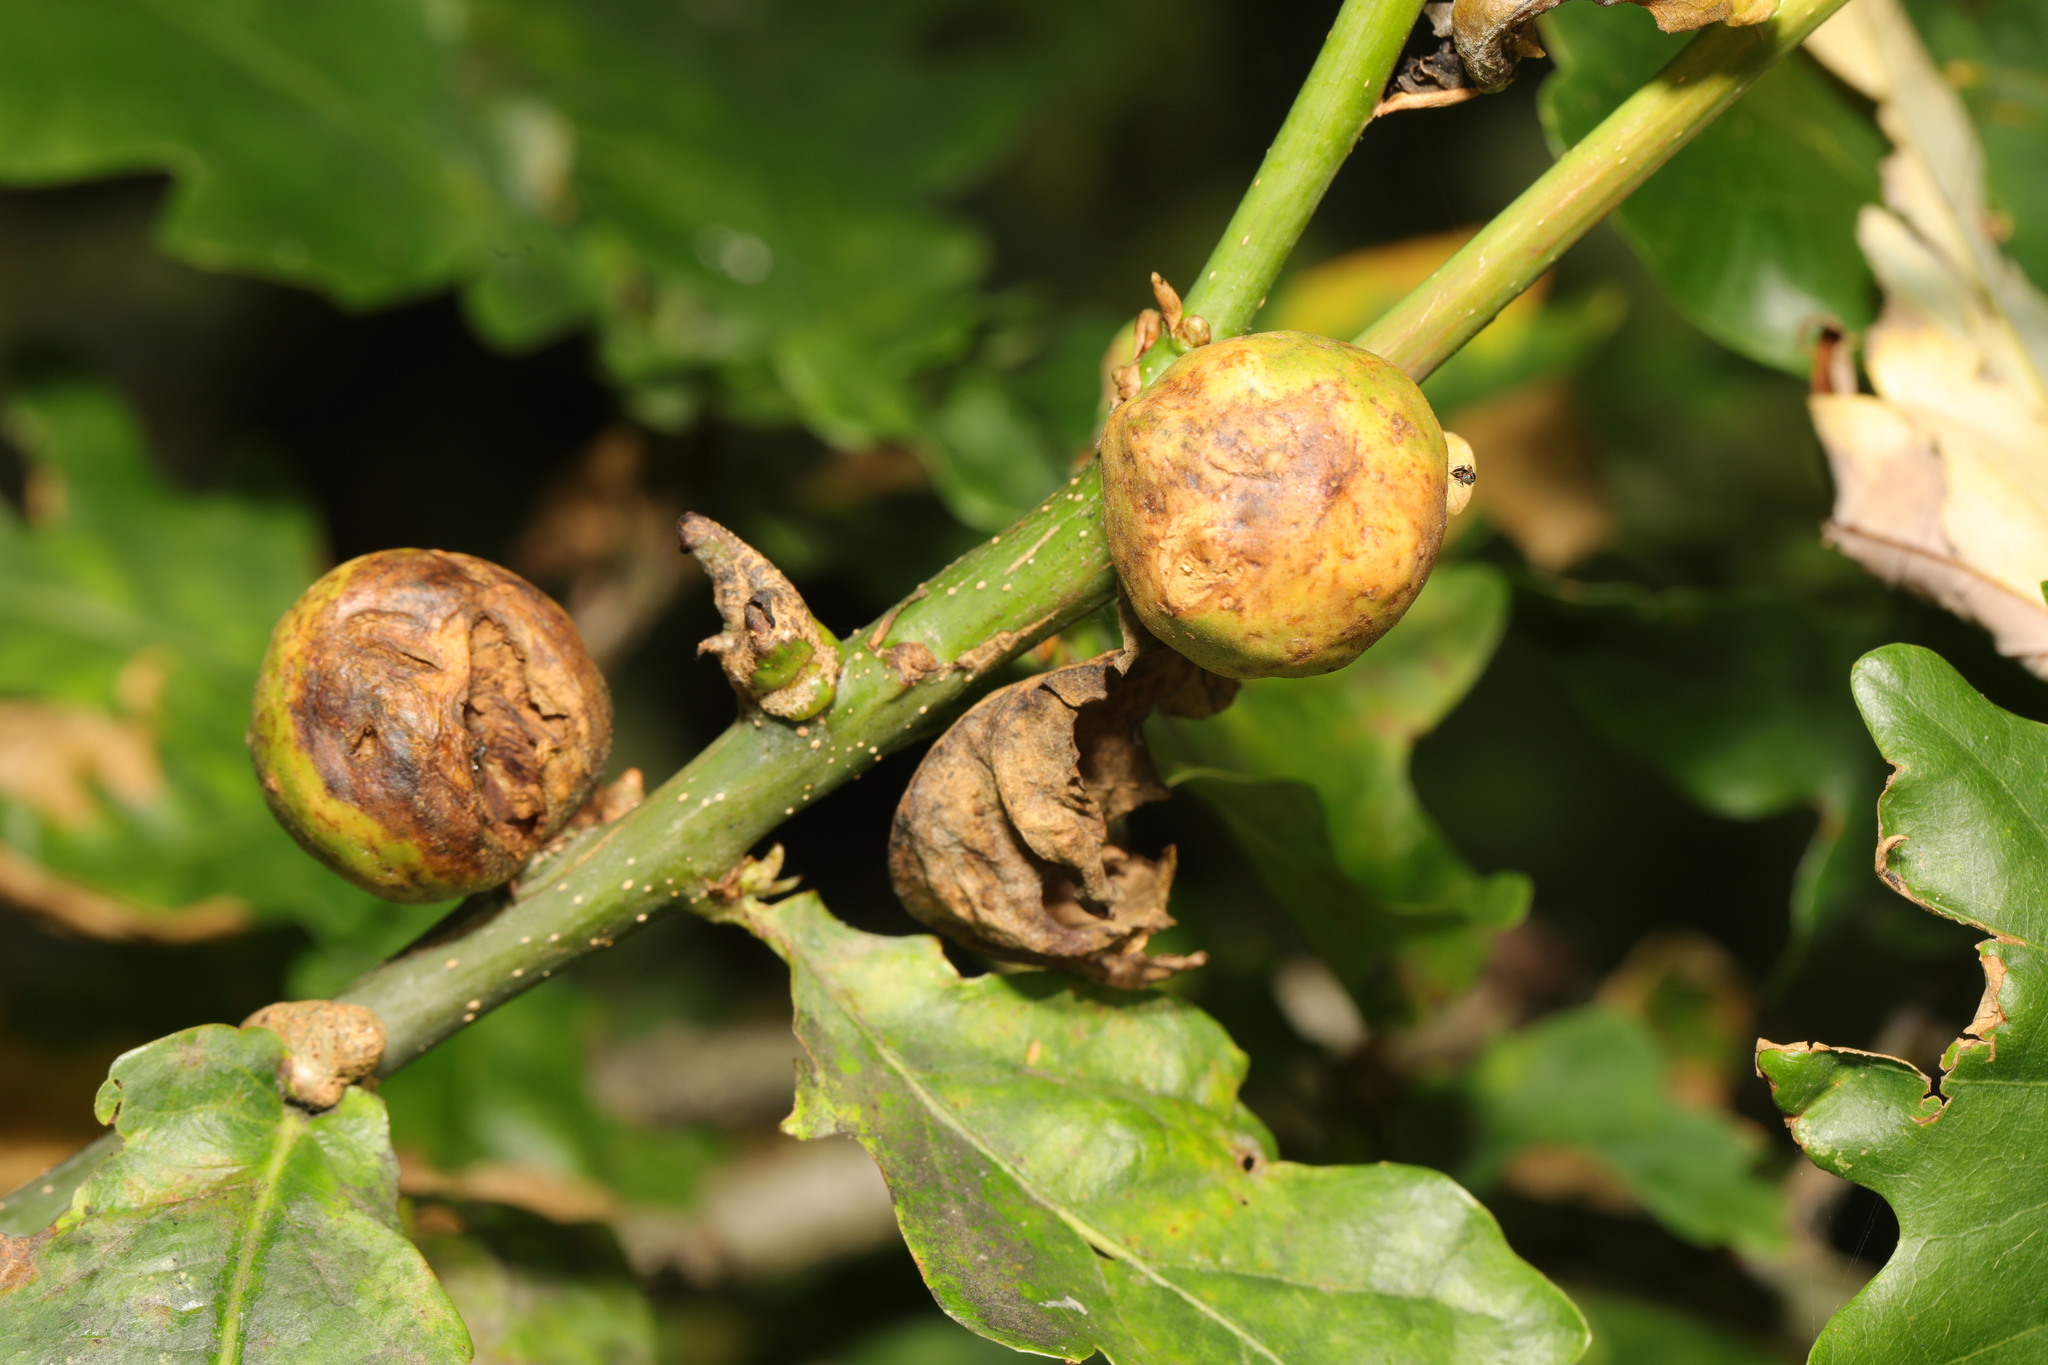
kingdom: Animalia
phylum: Arthropoda
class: Insecta
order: Hymenoptera
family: Cynipidae
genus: Andricus
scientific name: Andricus kollari
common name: Marble gall
